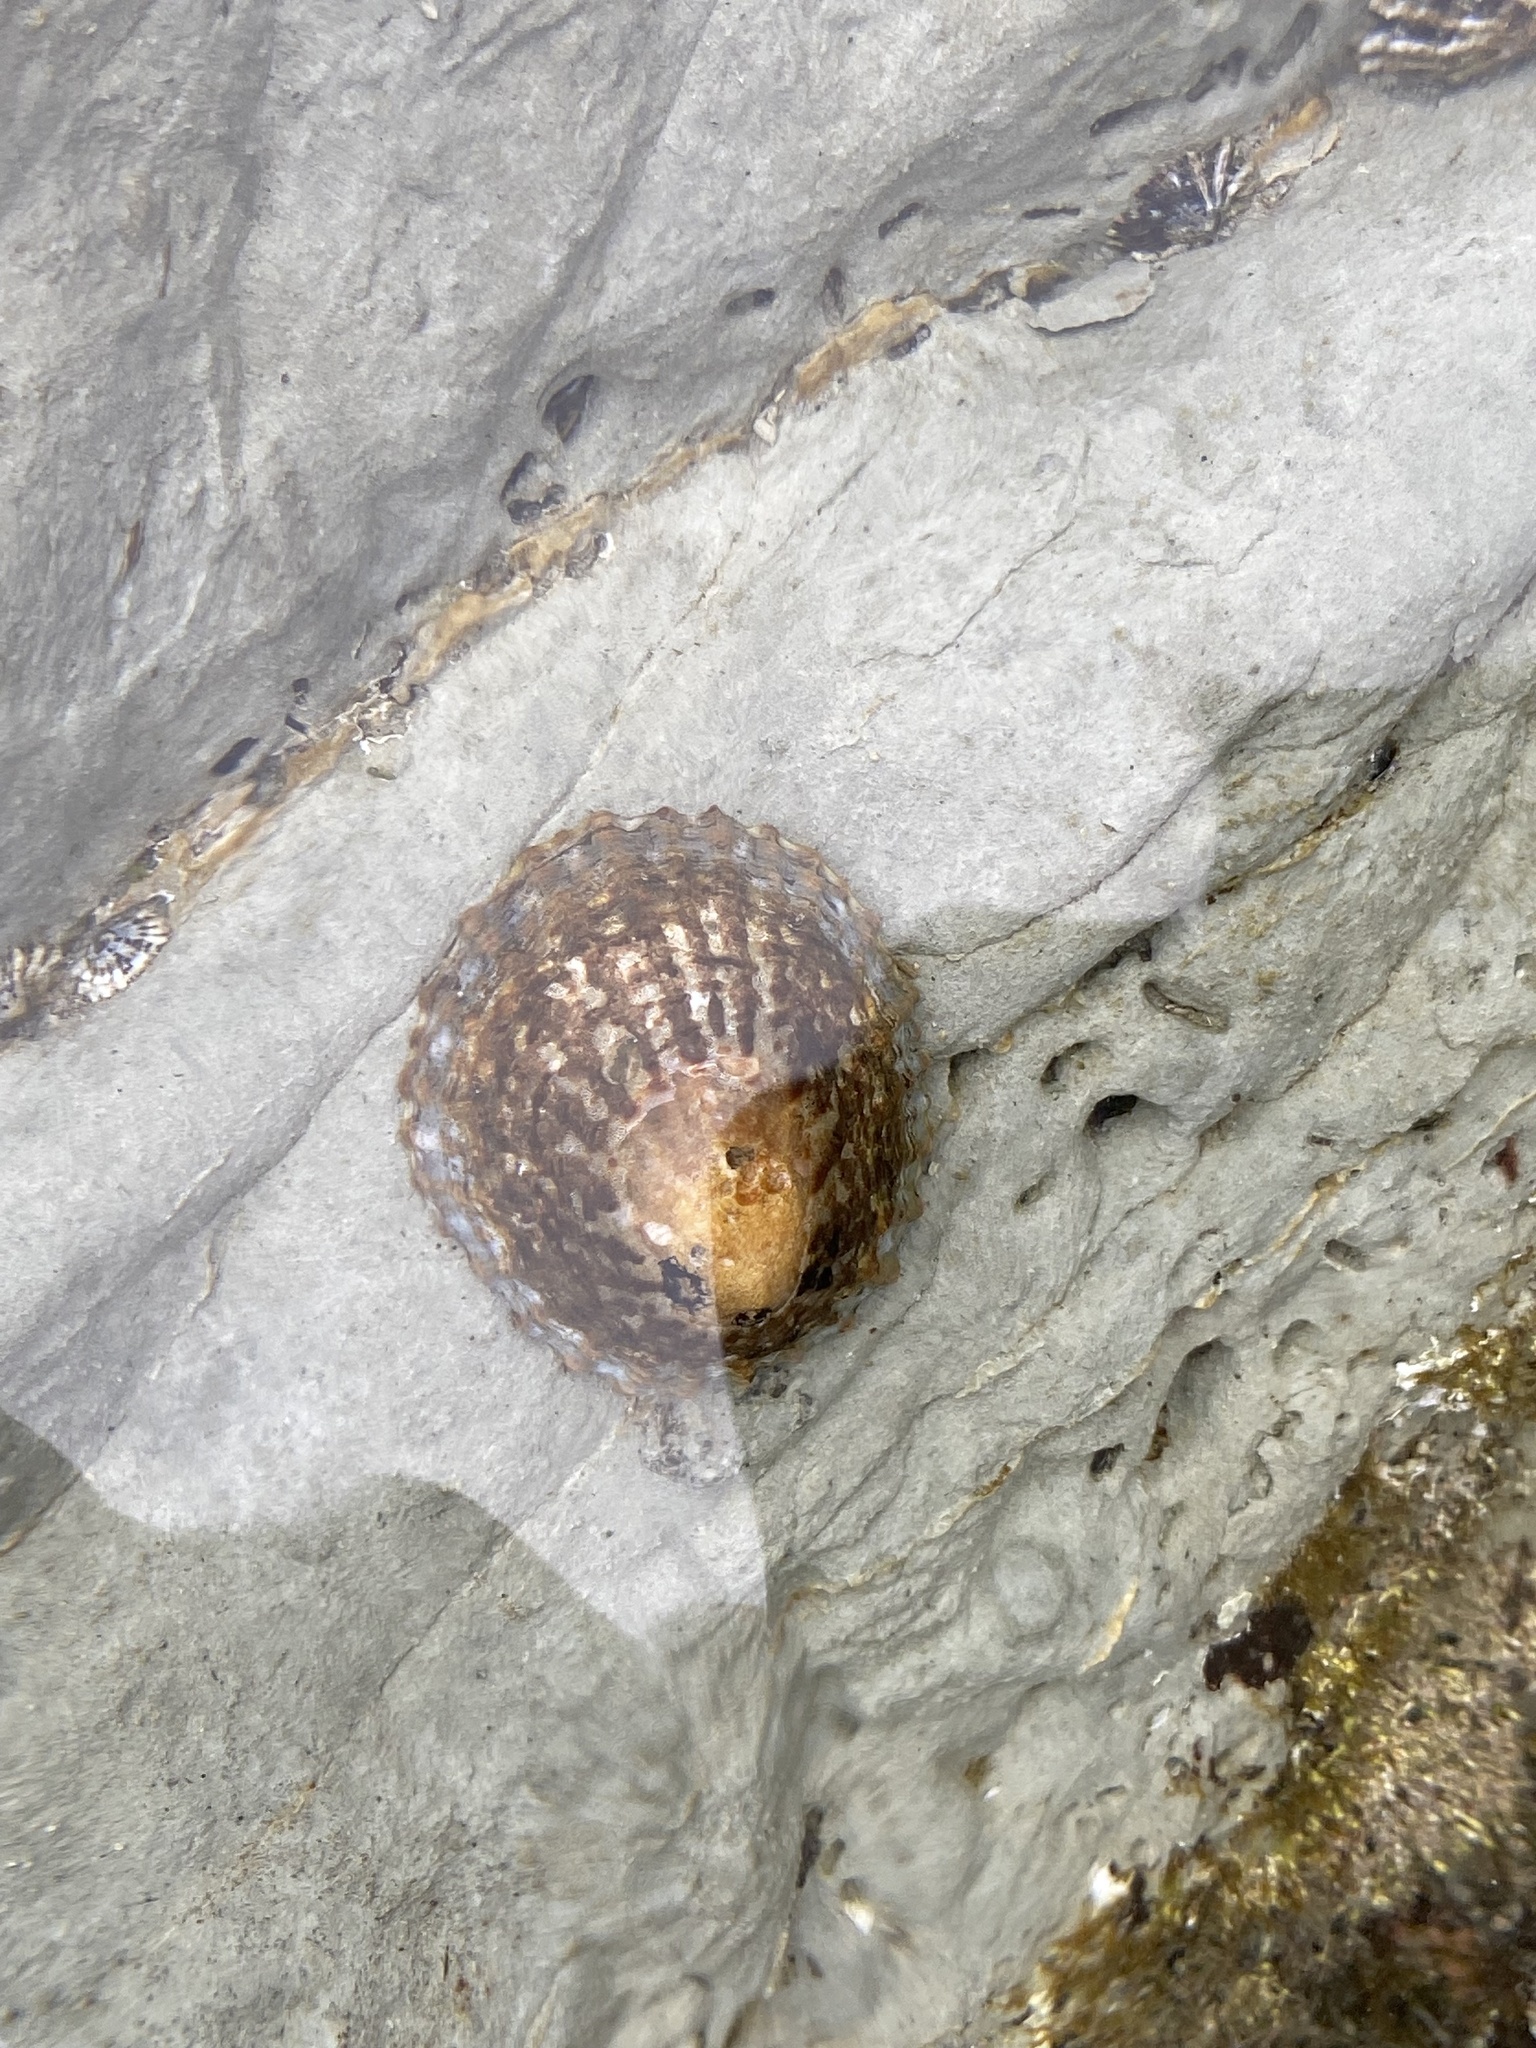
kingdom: Animalia
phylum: Mollusca
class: Gastropoda
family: Nacellidae
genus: Cellana
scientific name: Cellana denticulata
